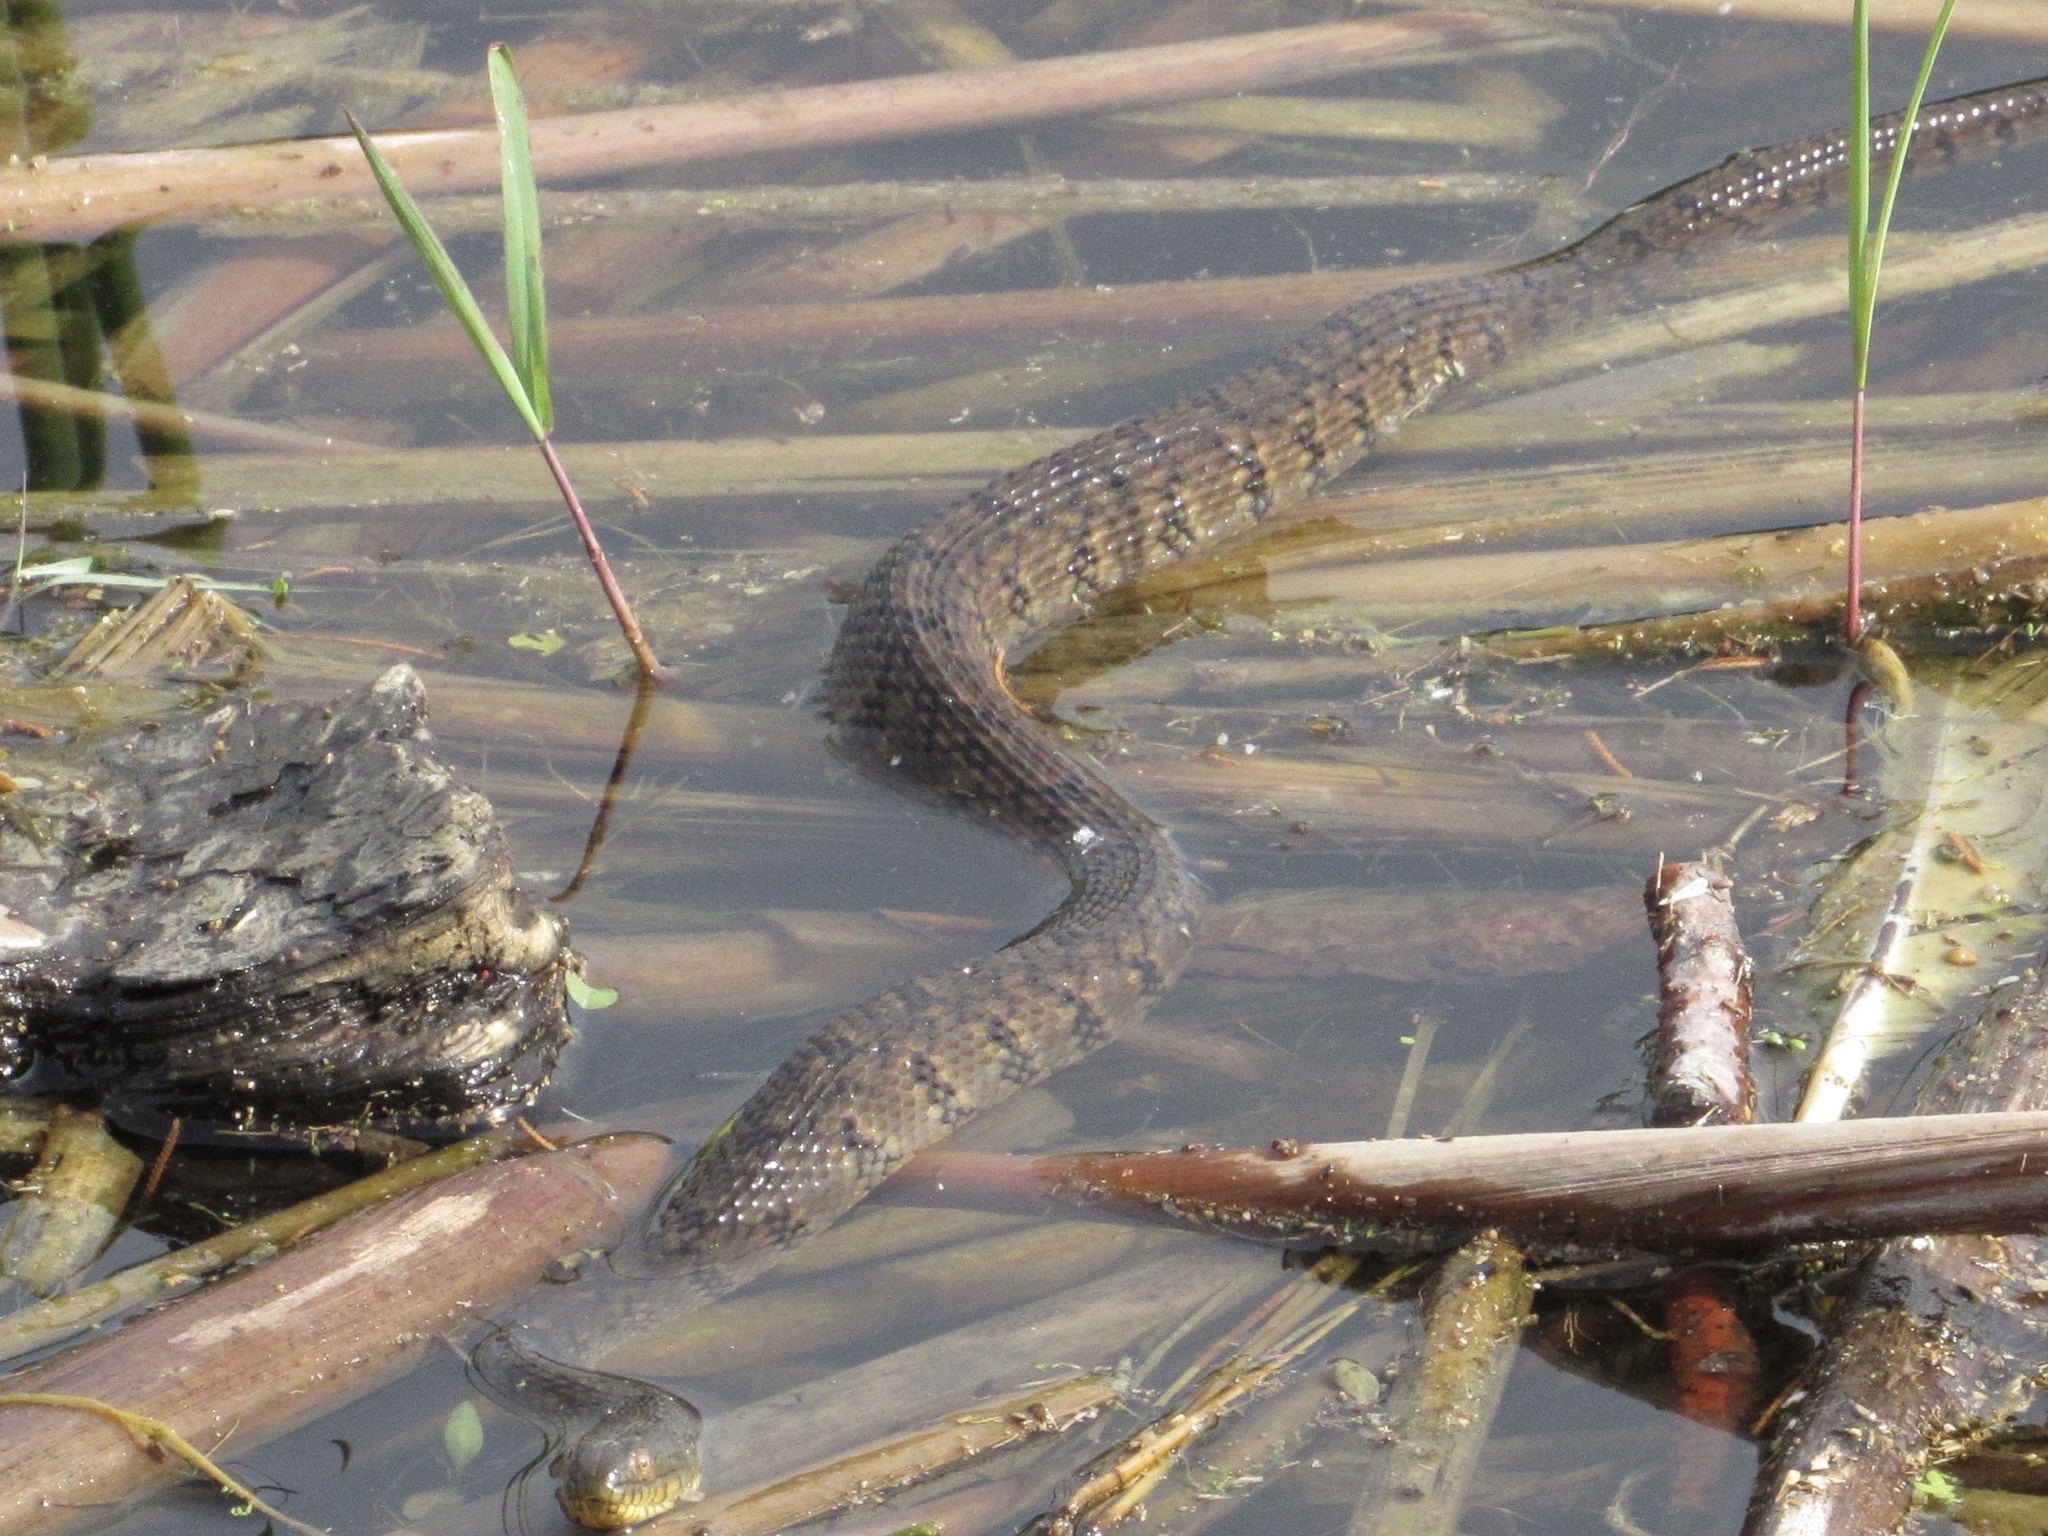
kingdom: Animalia
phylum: Chordata
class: Squamata
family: Colubridae
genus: Nerodia
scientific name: Nerodia rhombifer
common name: Diamondback water snake
